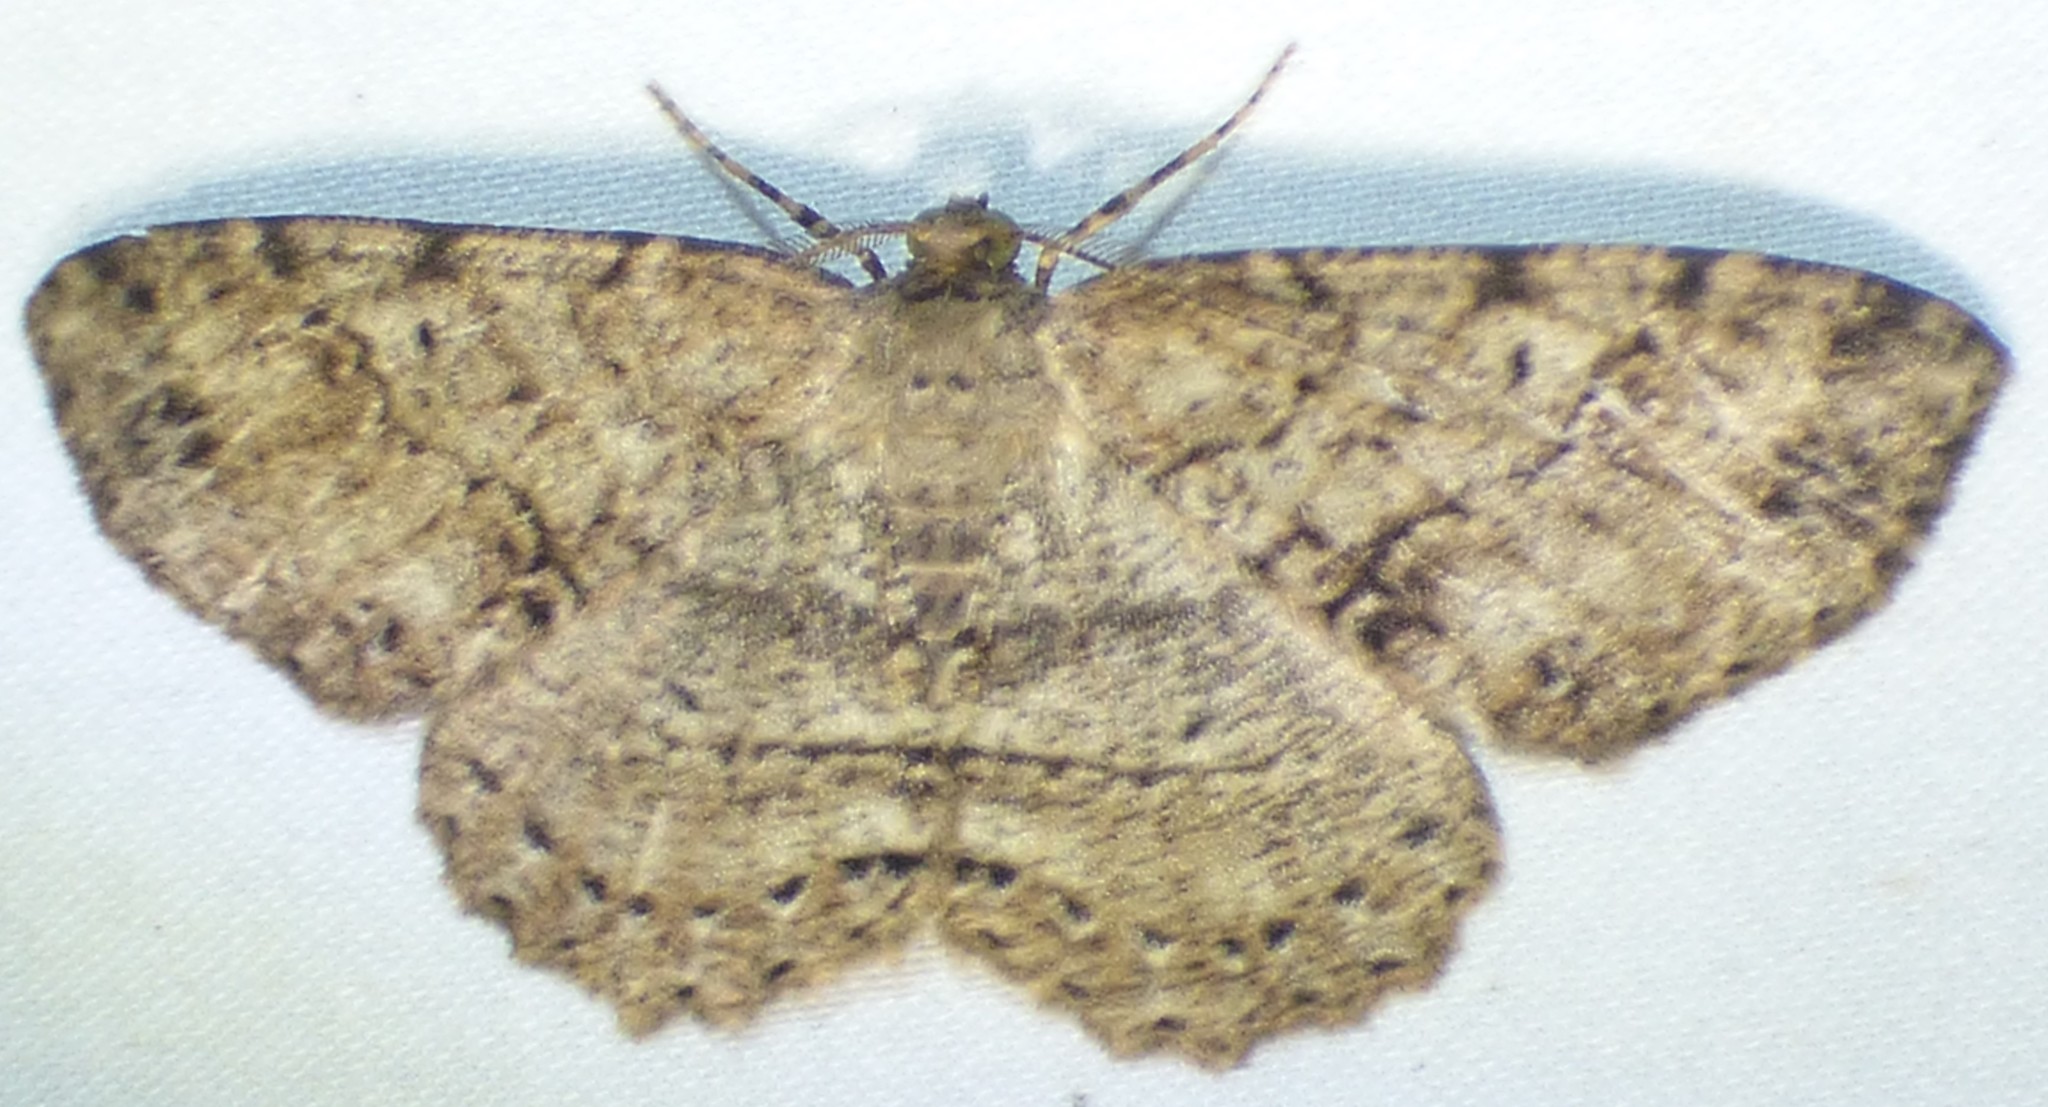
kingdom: Animalia
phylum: Arthropoda
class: Insecta
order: Lepidoptera
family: Geometridae
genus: Melanolophia
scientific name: Melanolophia canadaria
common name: Canadian melanolophia
